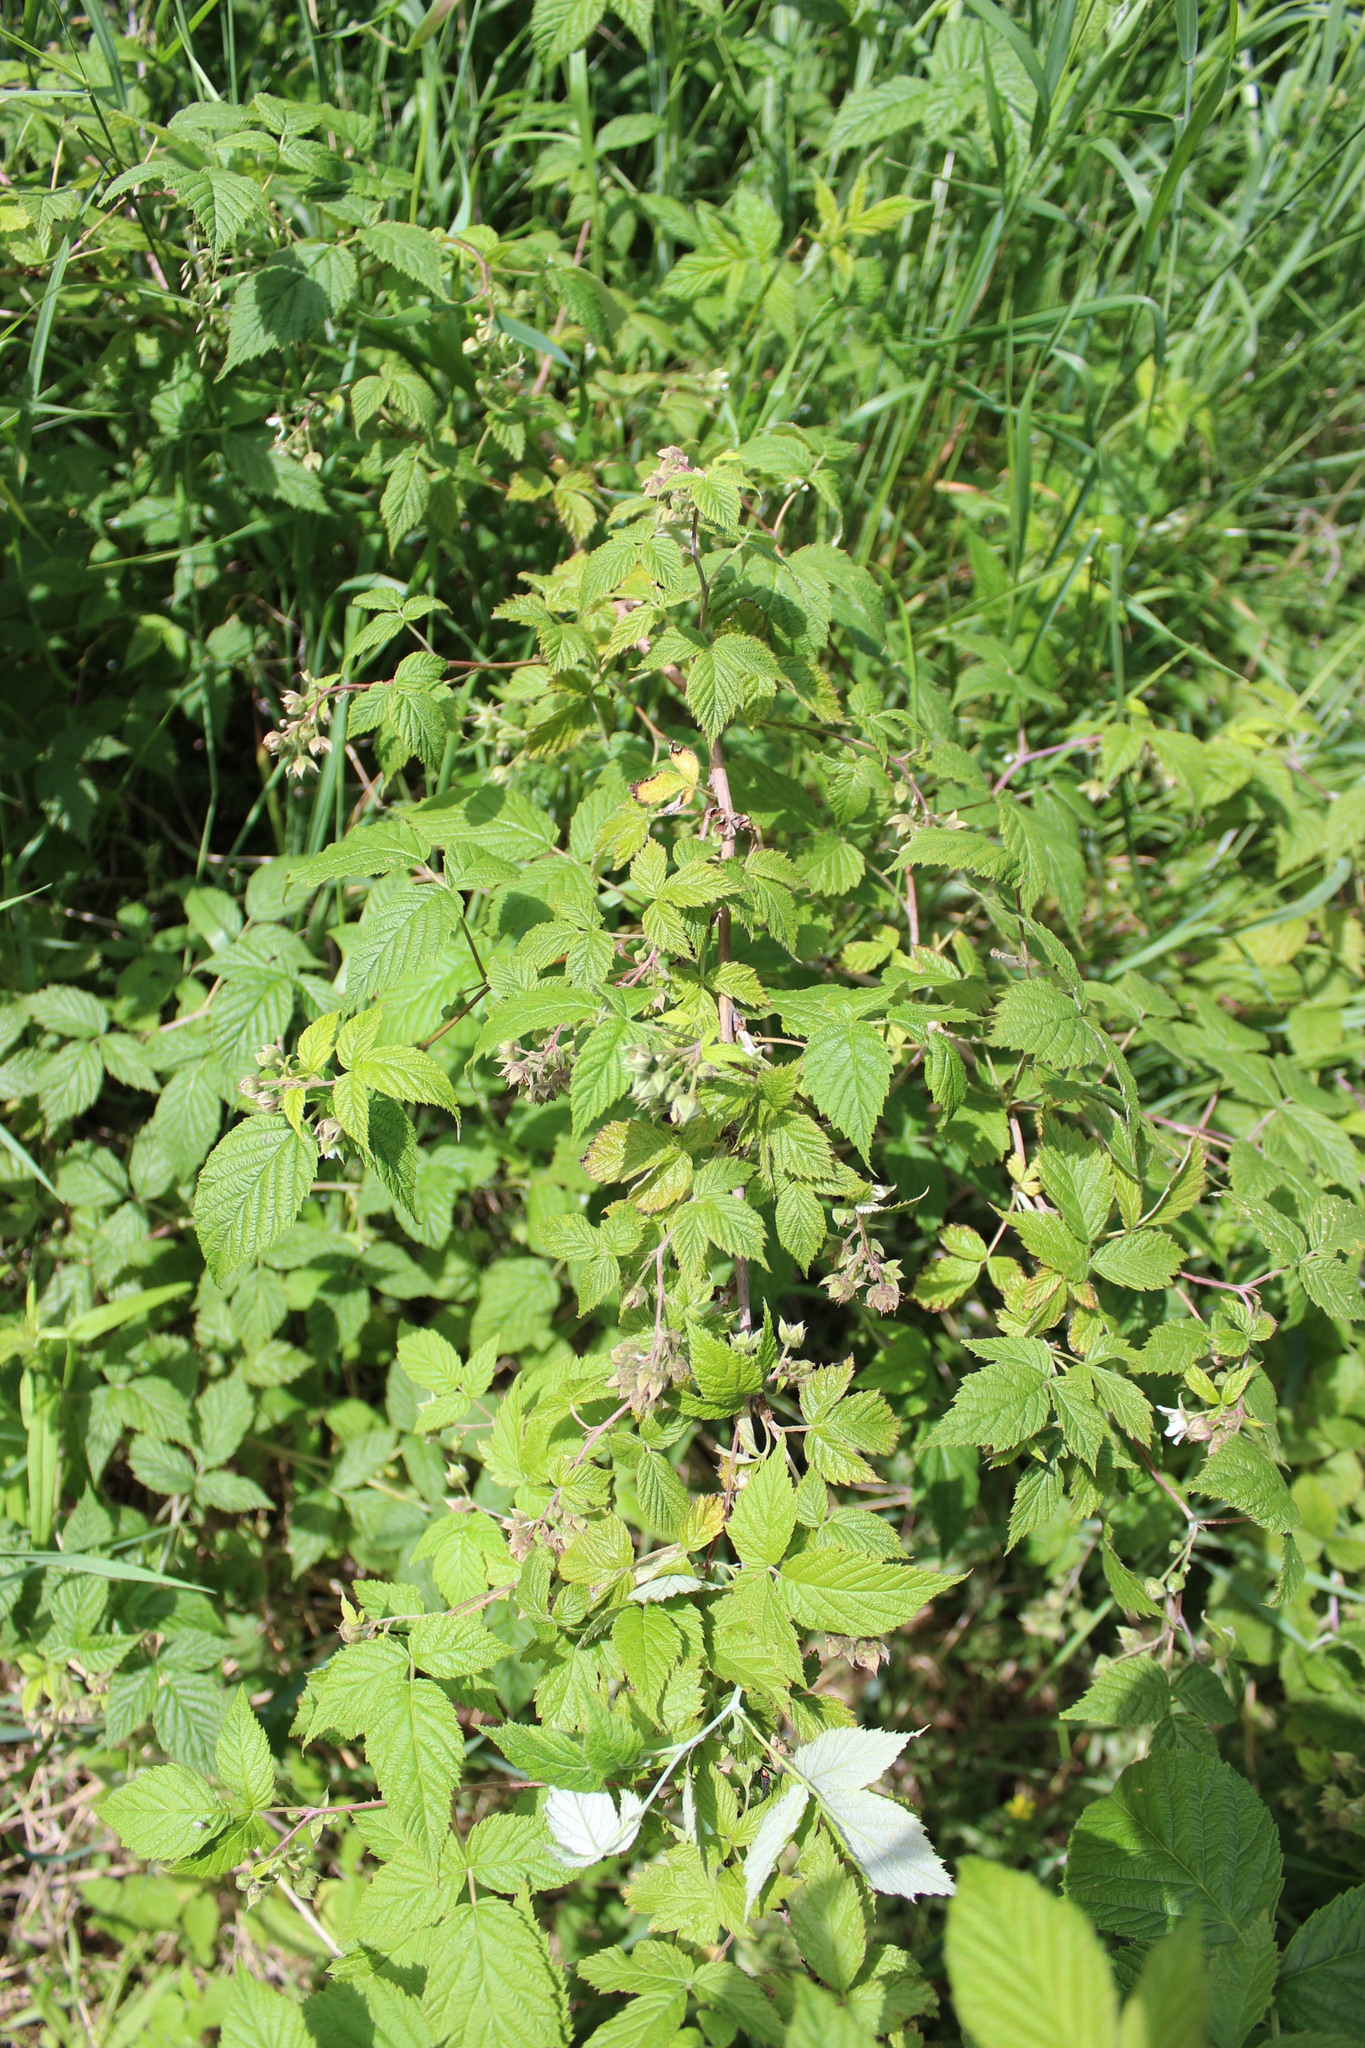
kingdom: Plantae
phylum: Tracheophyta
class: Magnoliopsida
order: Rosales
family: Rosaceae
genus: Rubus
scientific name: Rubus idaeus
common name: Raspberry
